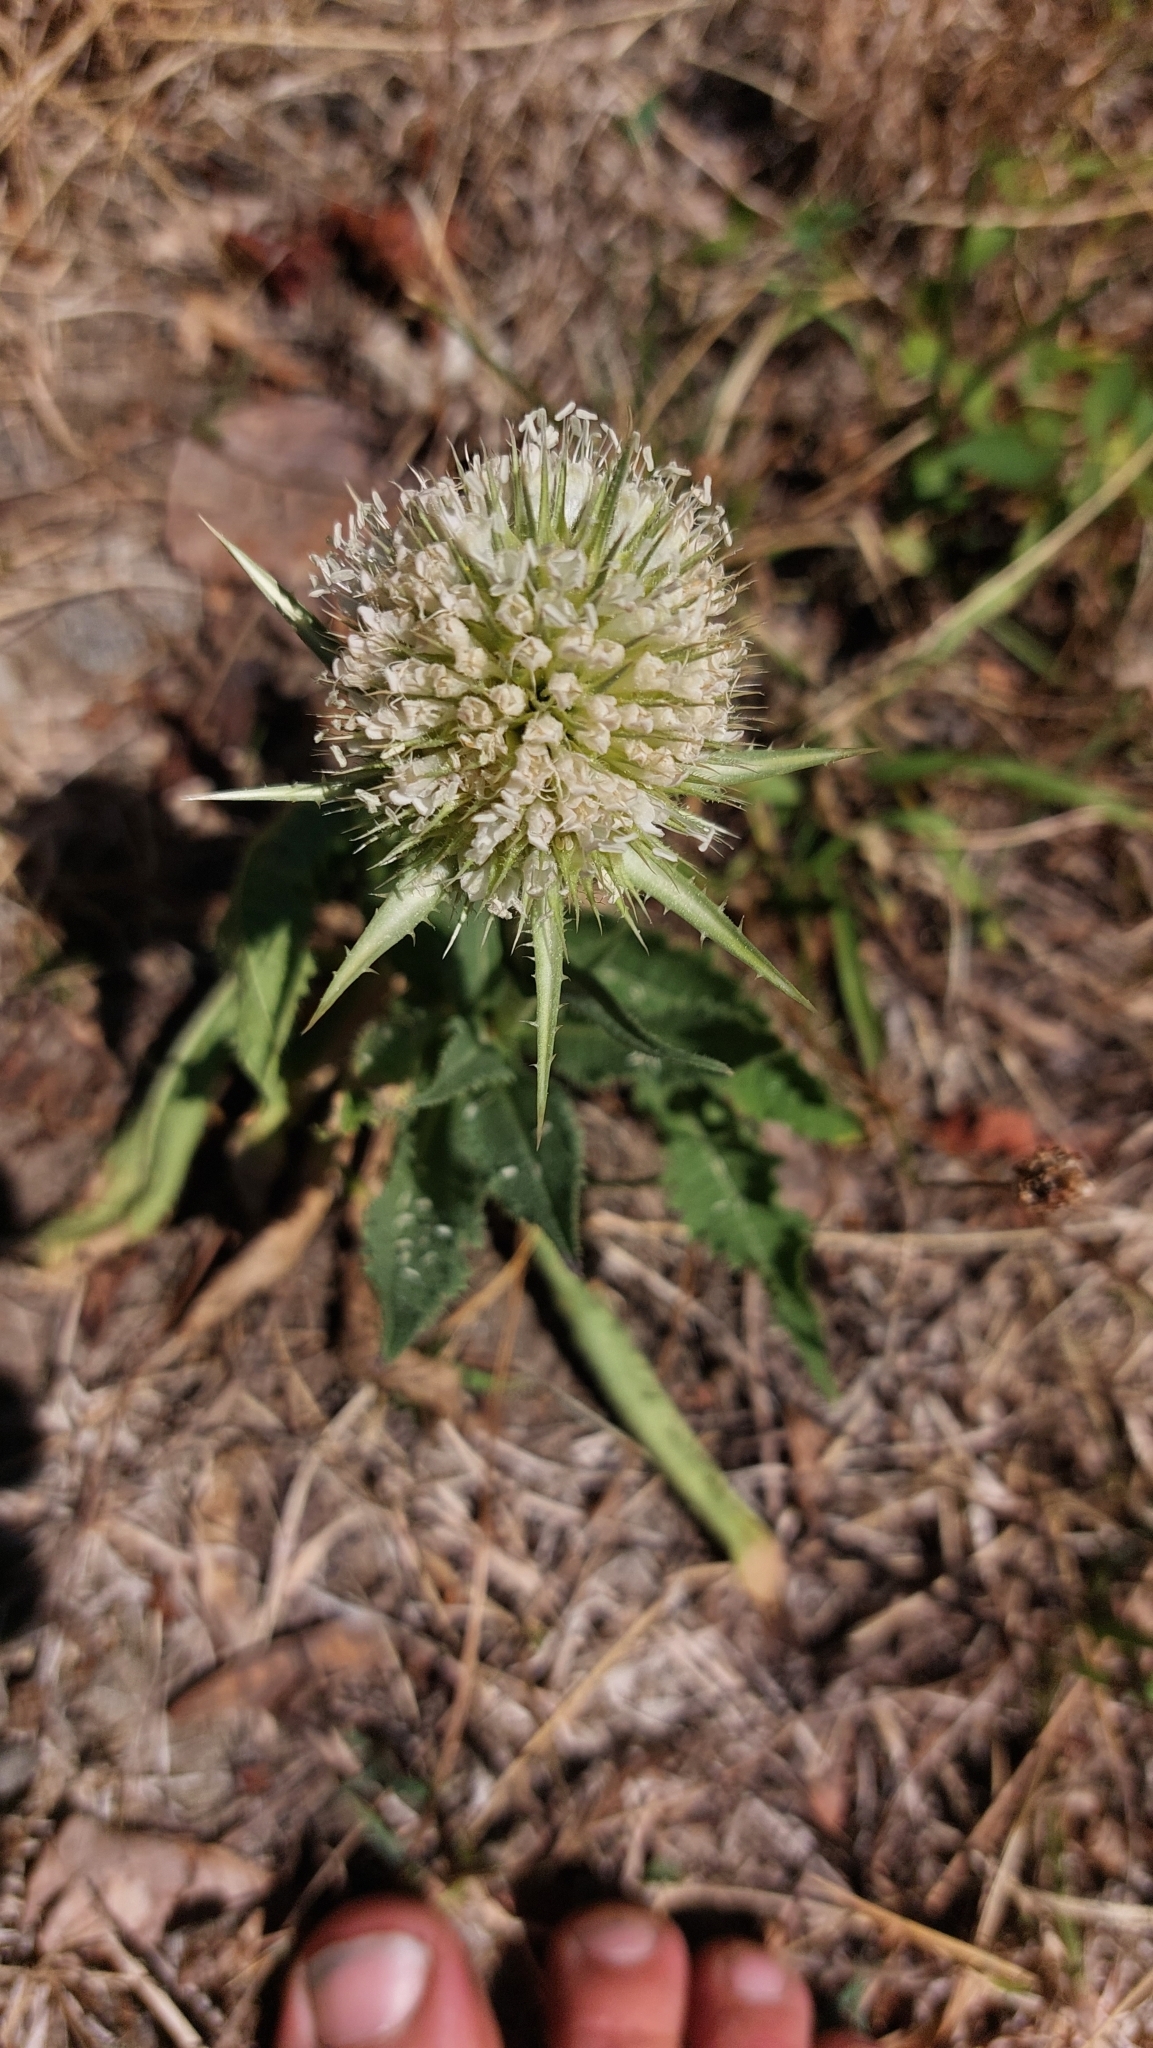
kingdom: Plantae
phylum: Tracheophyta
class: Magnoliopsida
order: Dipsacales
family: Caprifoliaceae
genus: Dipsacus
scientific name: Dipsacus laciniatus
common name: Cut-leaved teasel
